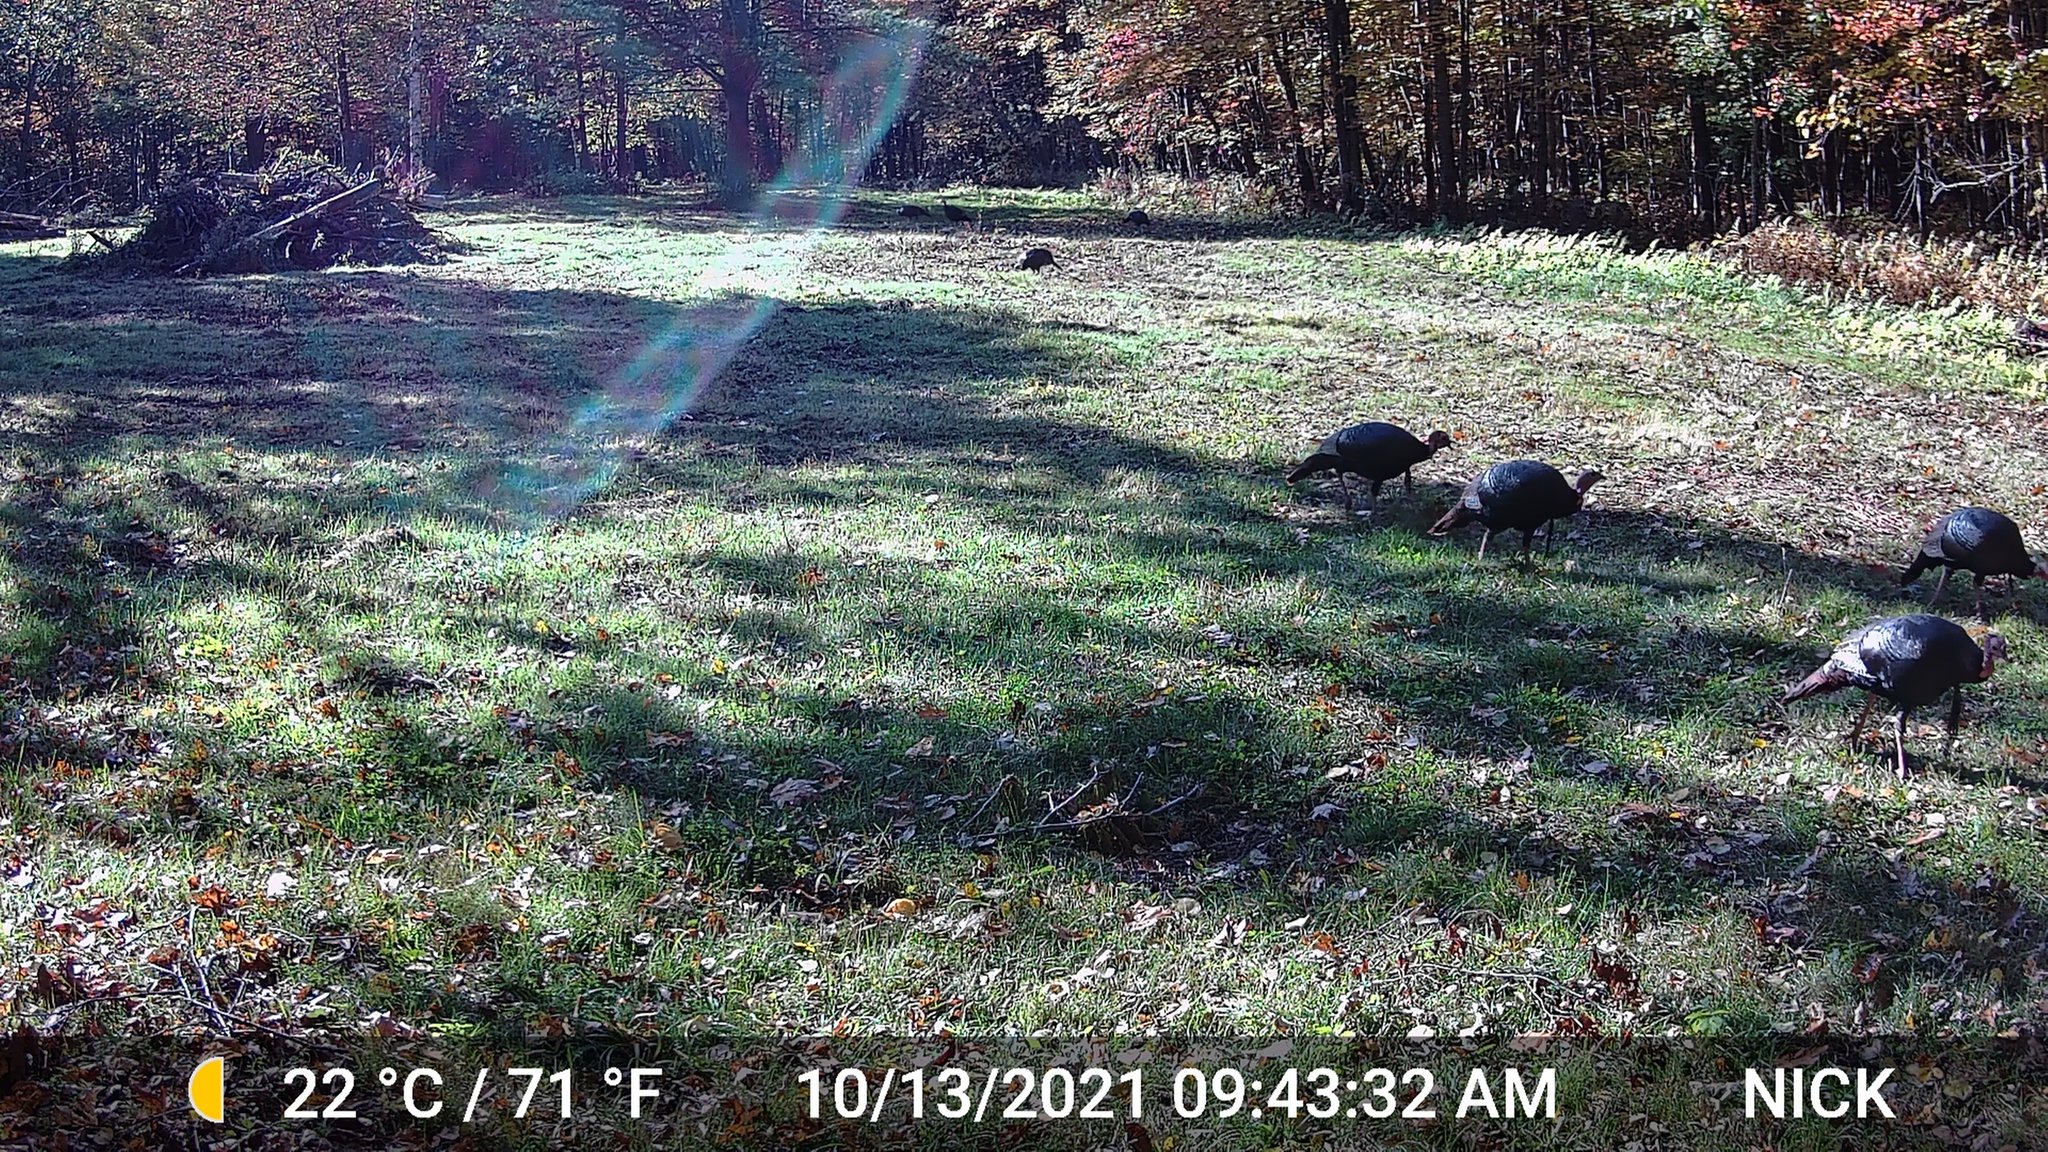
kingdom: Animalia
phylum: Chordata
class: Aves
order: Galliformes
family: Phasianidae
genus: Meleagris
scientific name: Meleagris gallopavo
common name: Wild turkey
